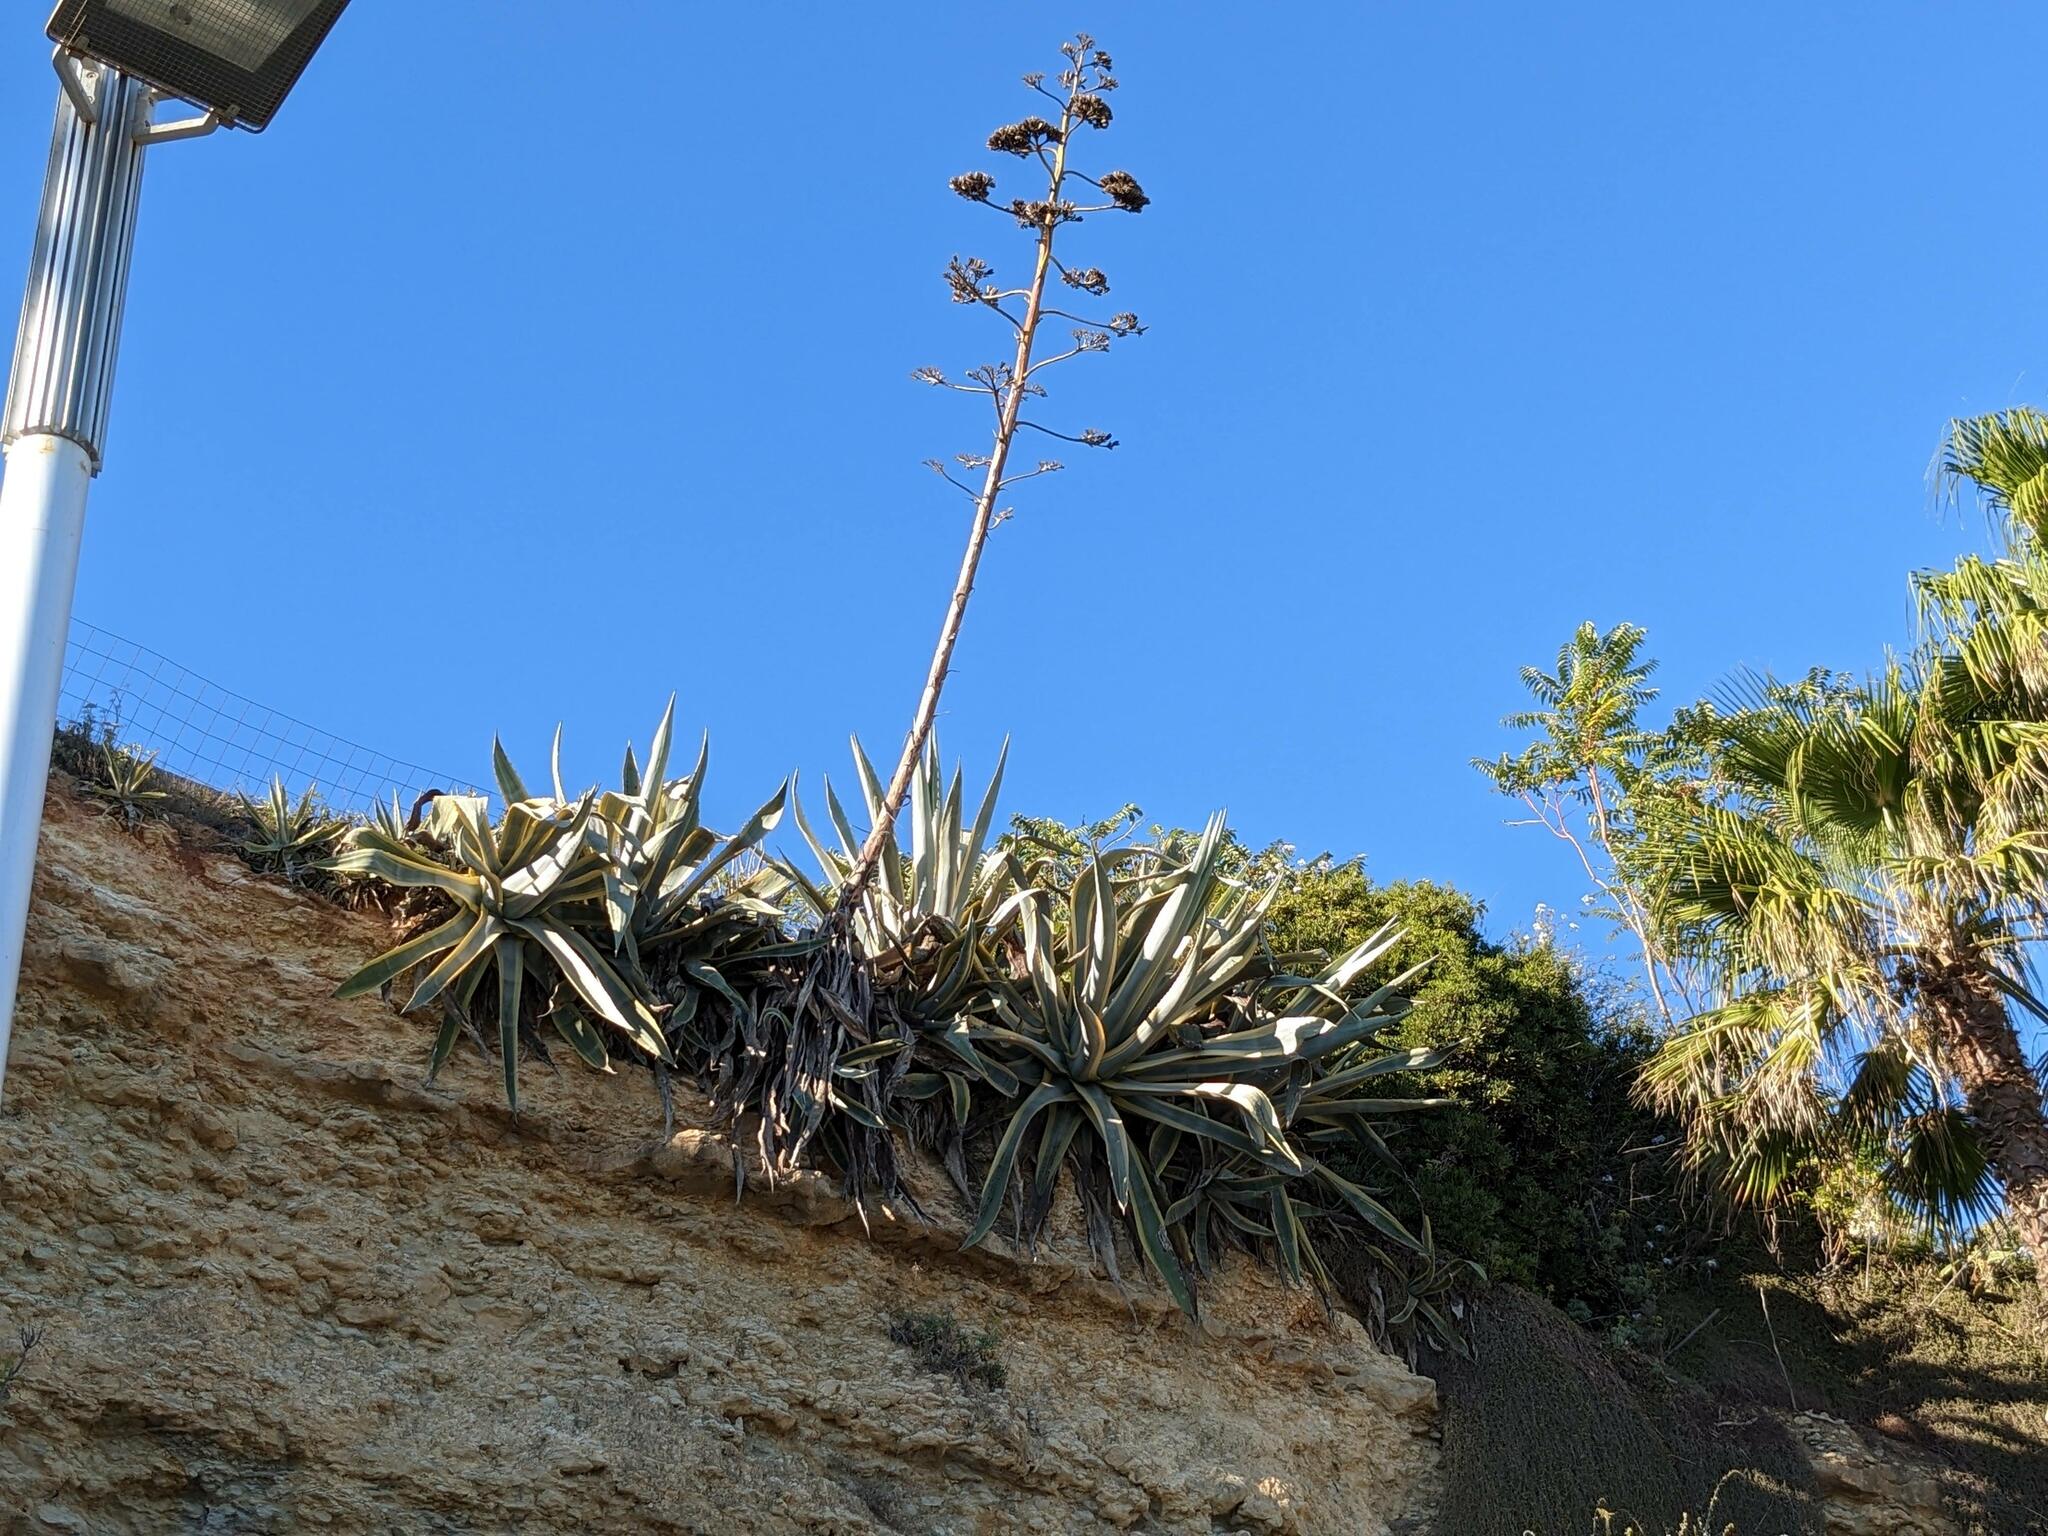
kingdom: Plantae
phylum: Tracheophyta
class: Liliopsida
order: Asparagales
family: Asparagaceae
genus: Agave
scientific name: Agave americana
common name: Centuryplant
